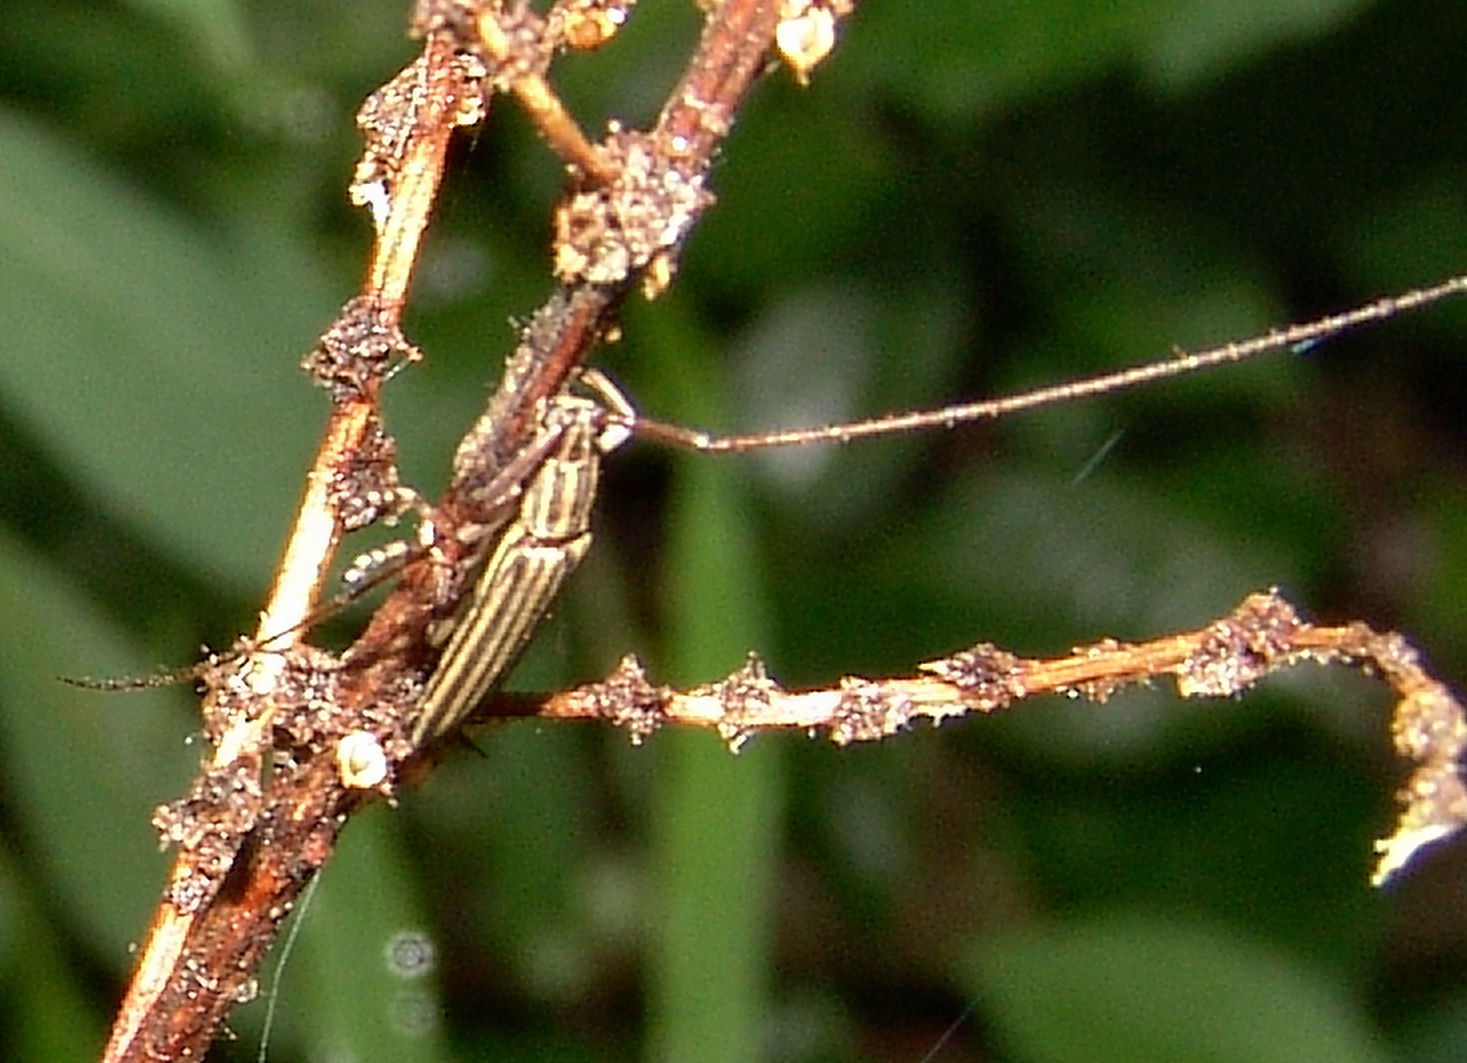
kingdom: Animalia
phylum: Arthropoda
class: Insecta
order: Coleoptera
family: Cerambycidae
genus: Hippopsis
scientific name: Hippopsis
